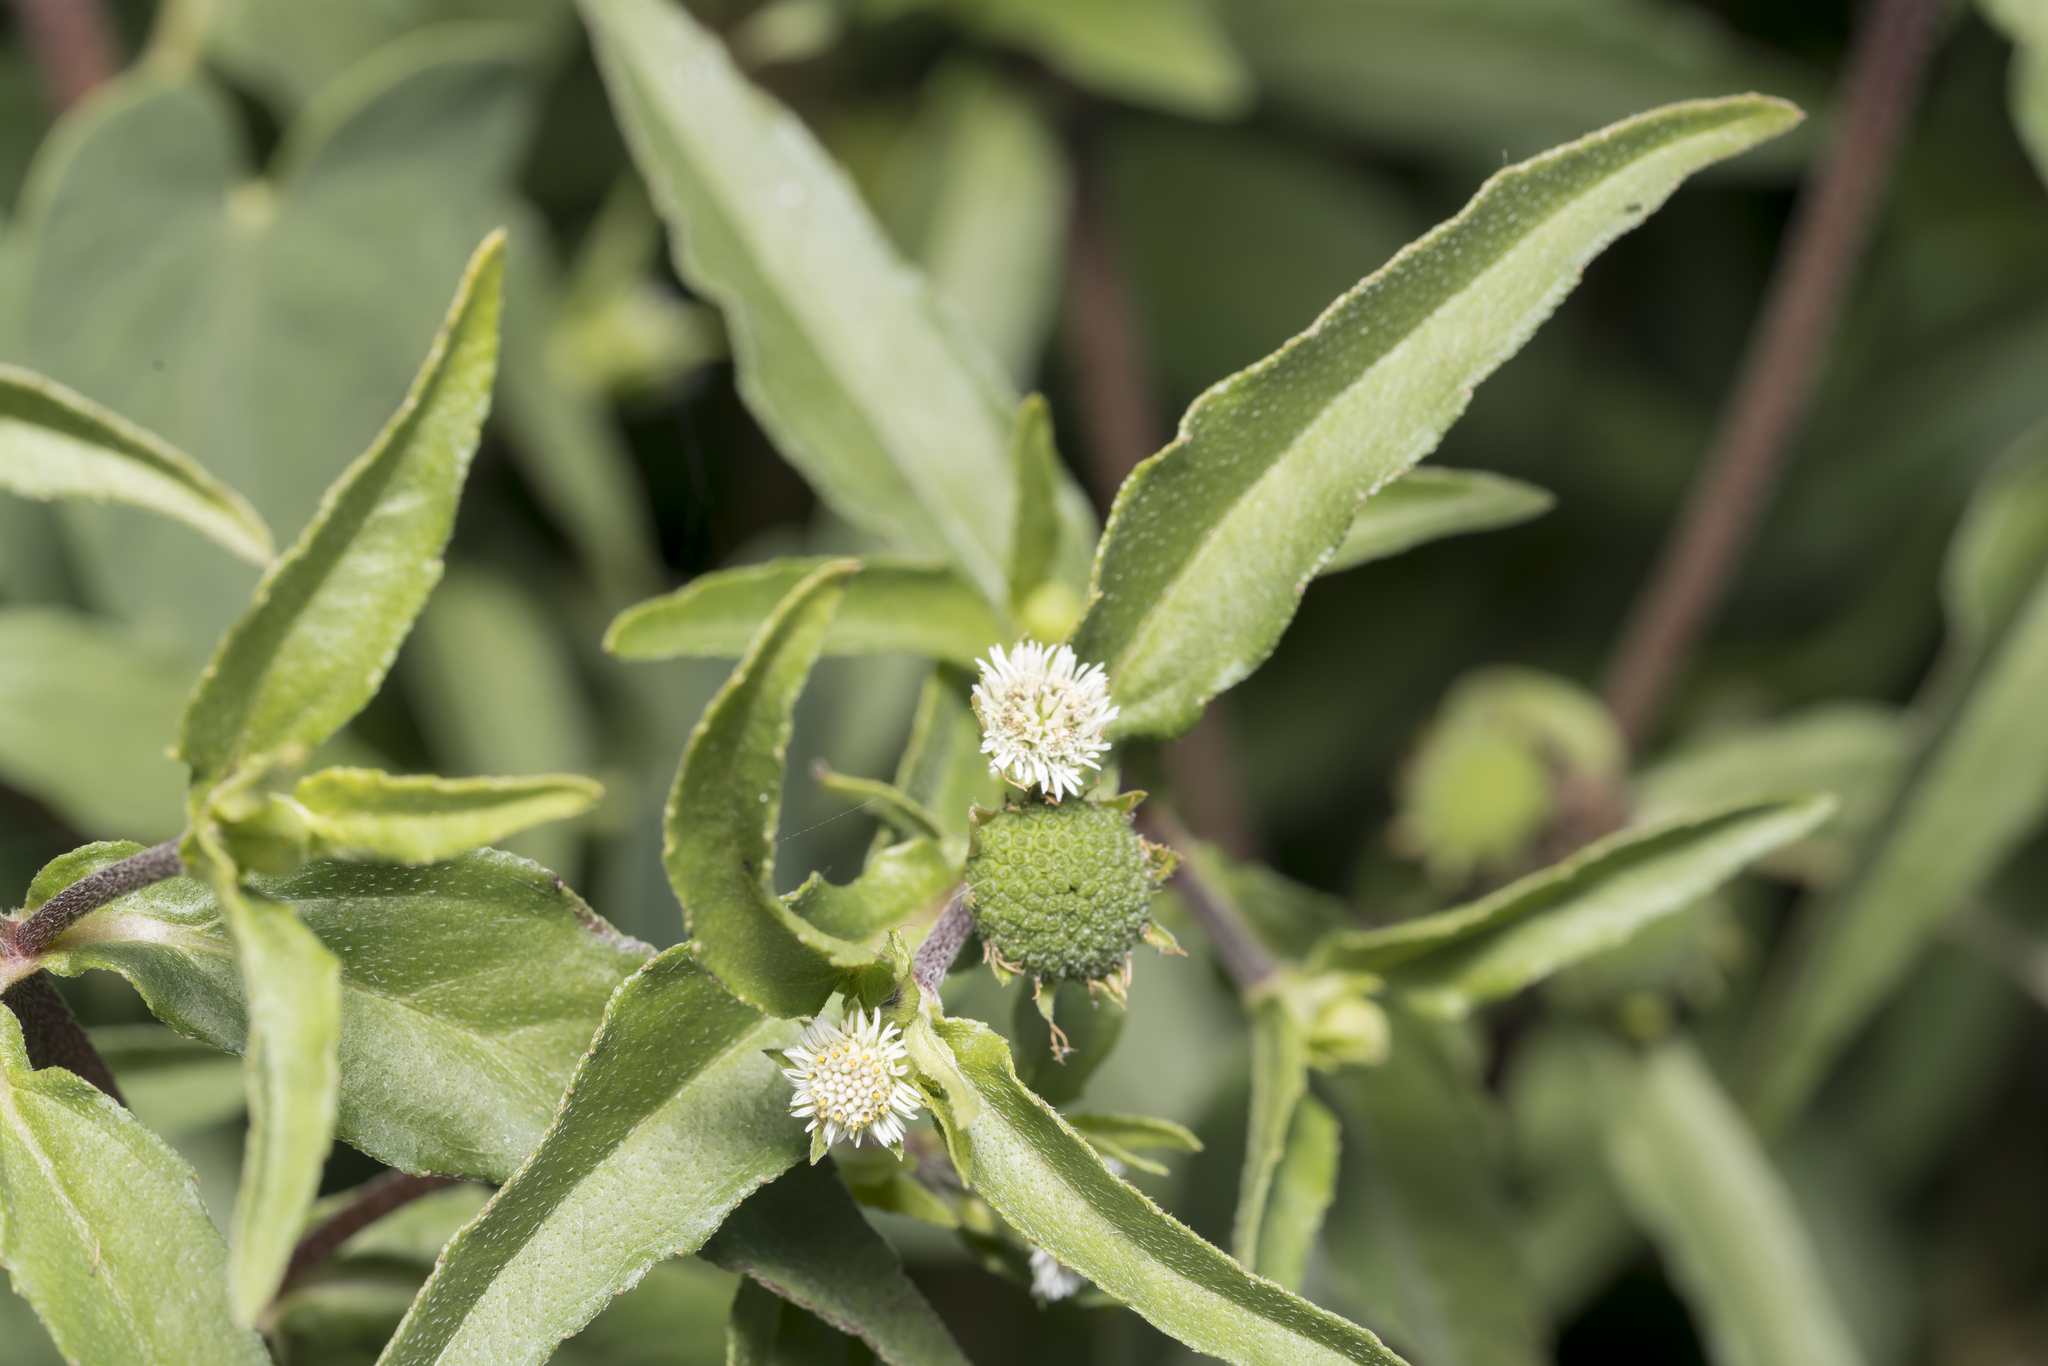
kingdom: Plantae
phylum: Tracheophyta
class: Magnoliopsida
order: Asterales
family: Asteraceae
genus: Eclipta
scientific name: Eclipta prostrata
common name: False daisy
